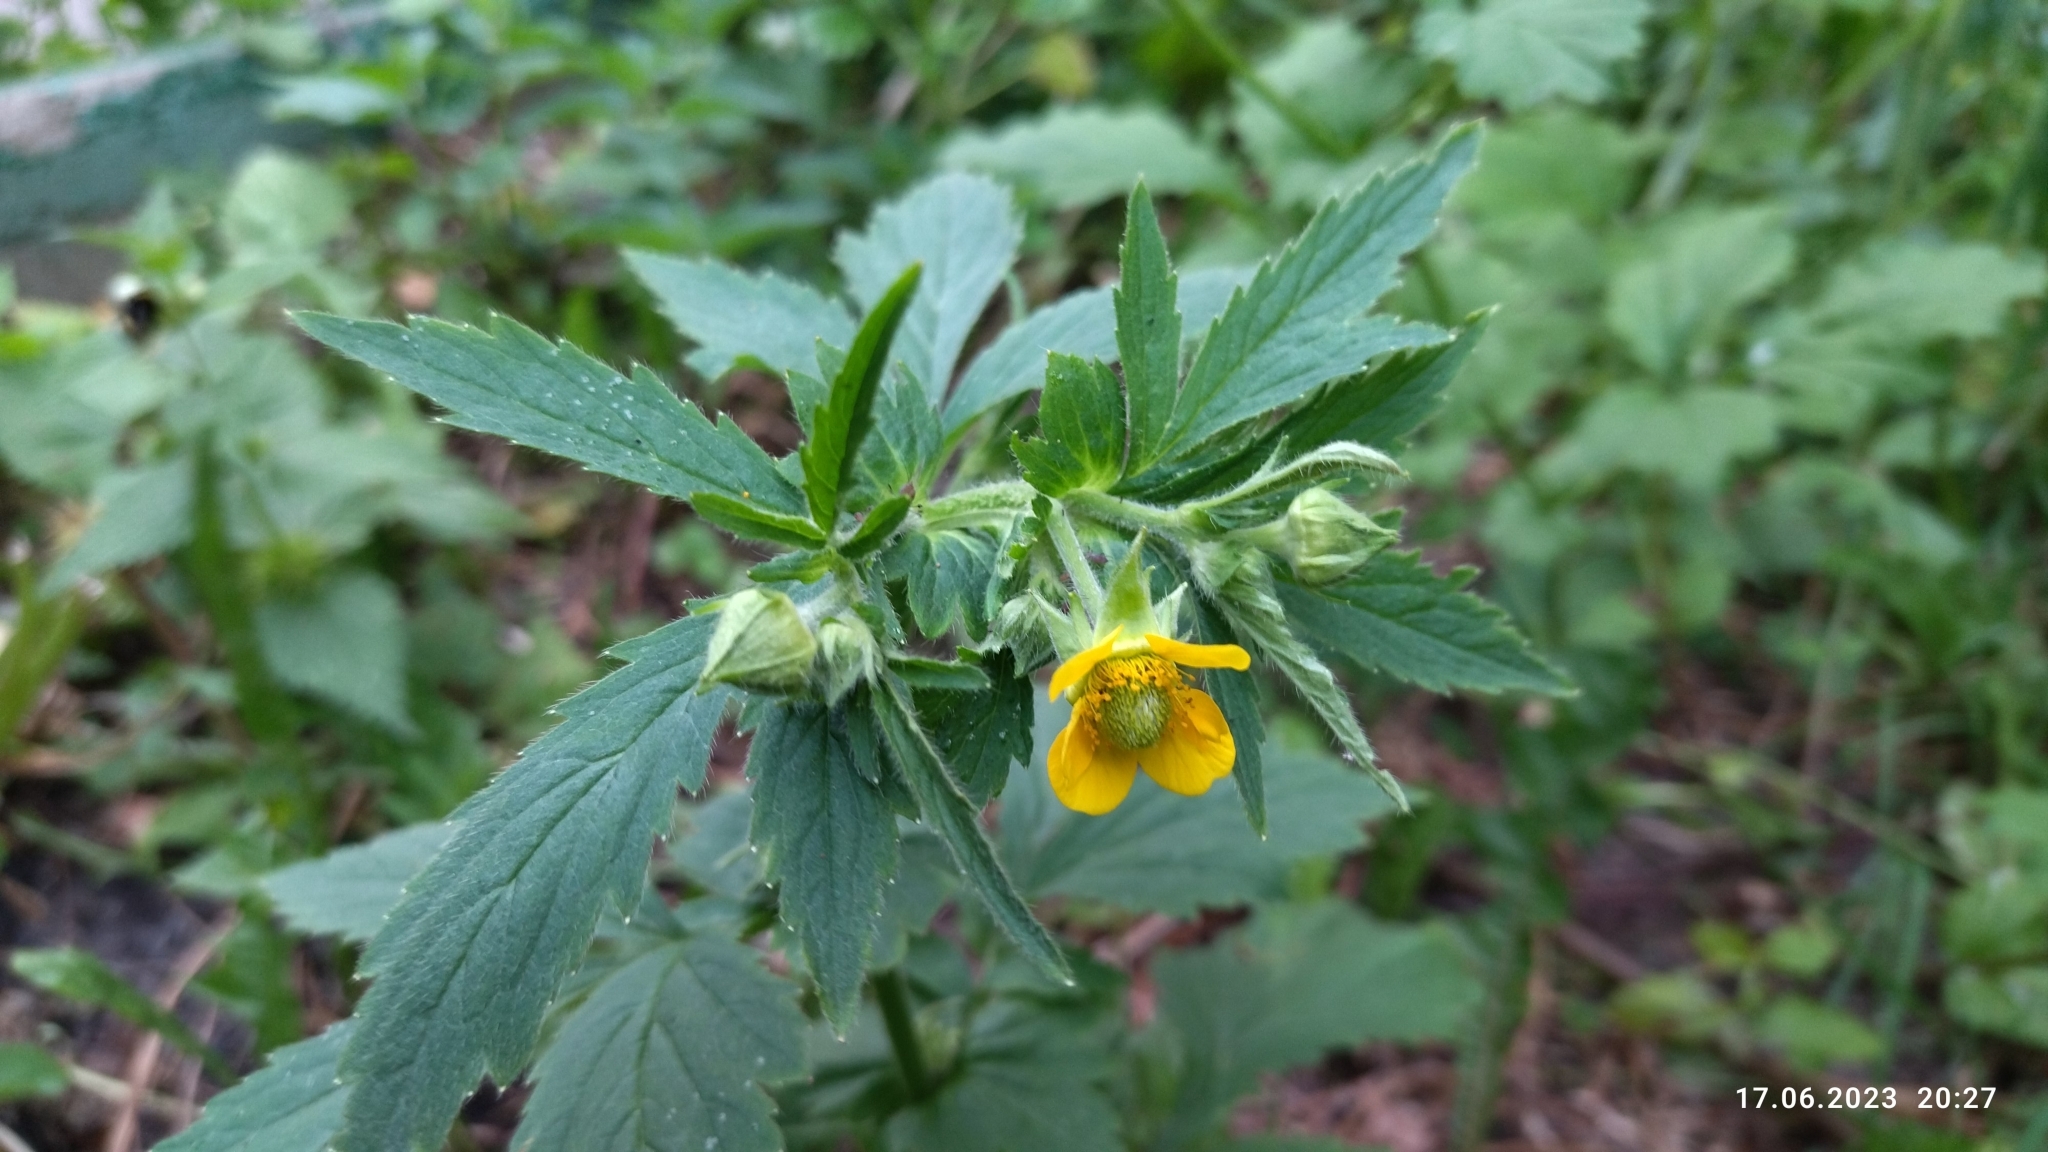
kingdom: Plantae
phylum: Tracheophyta
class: Magnoliopsida
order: Rosales
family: Rosaceae
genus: Geum
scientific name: Geum aleppicum
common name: Yellow avens
